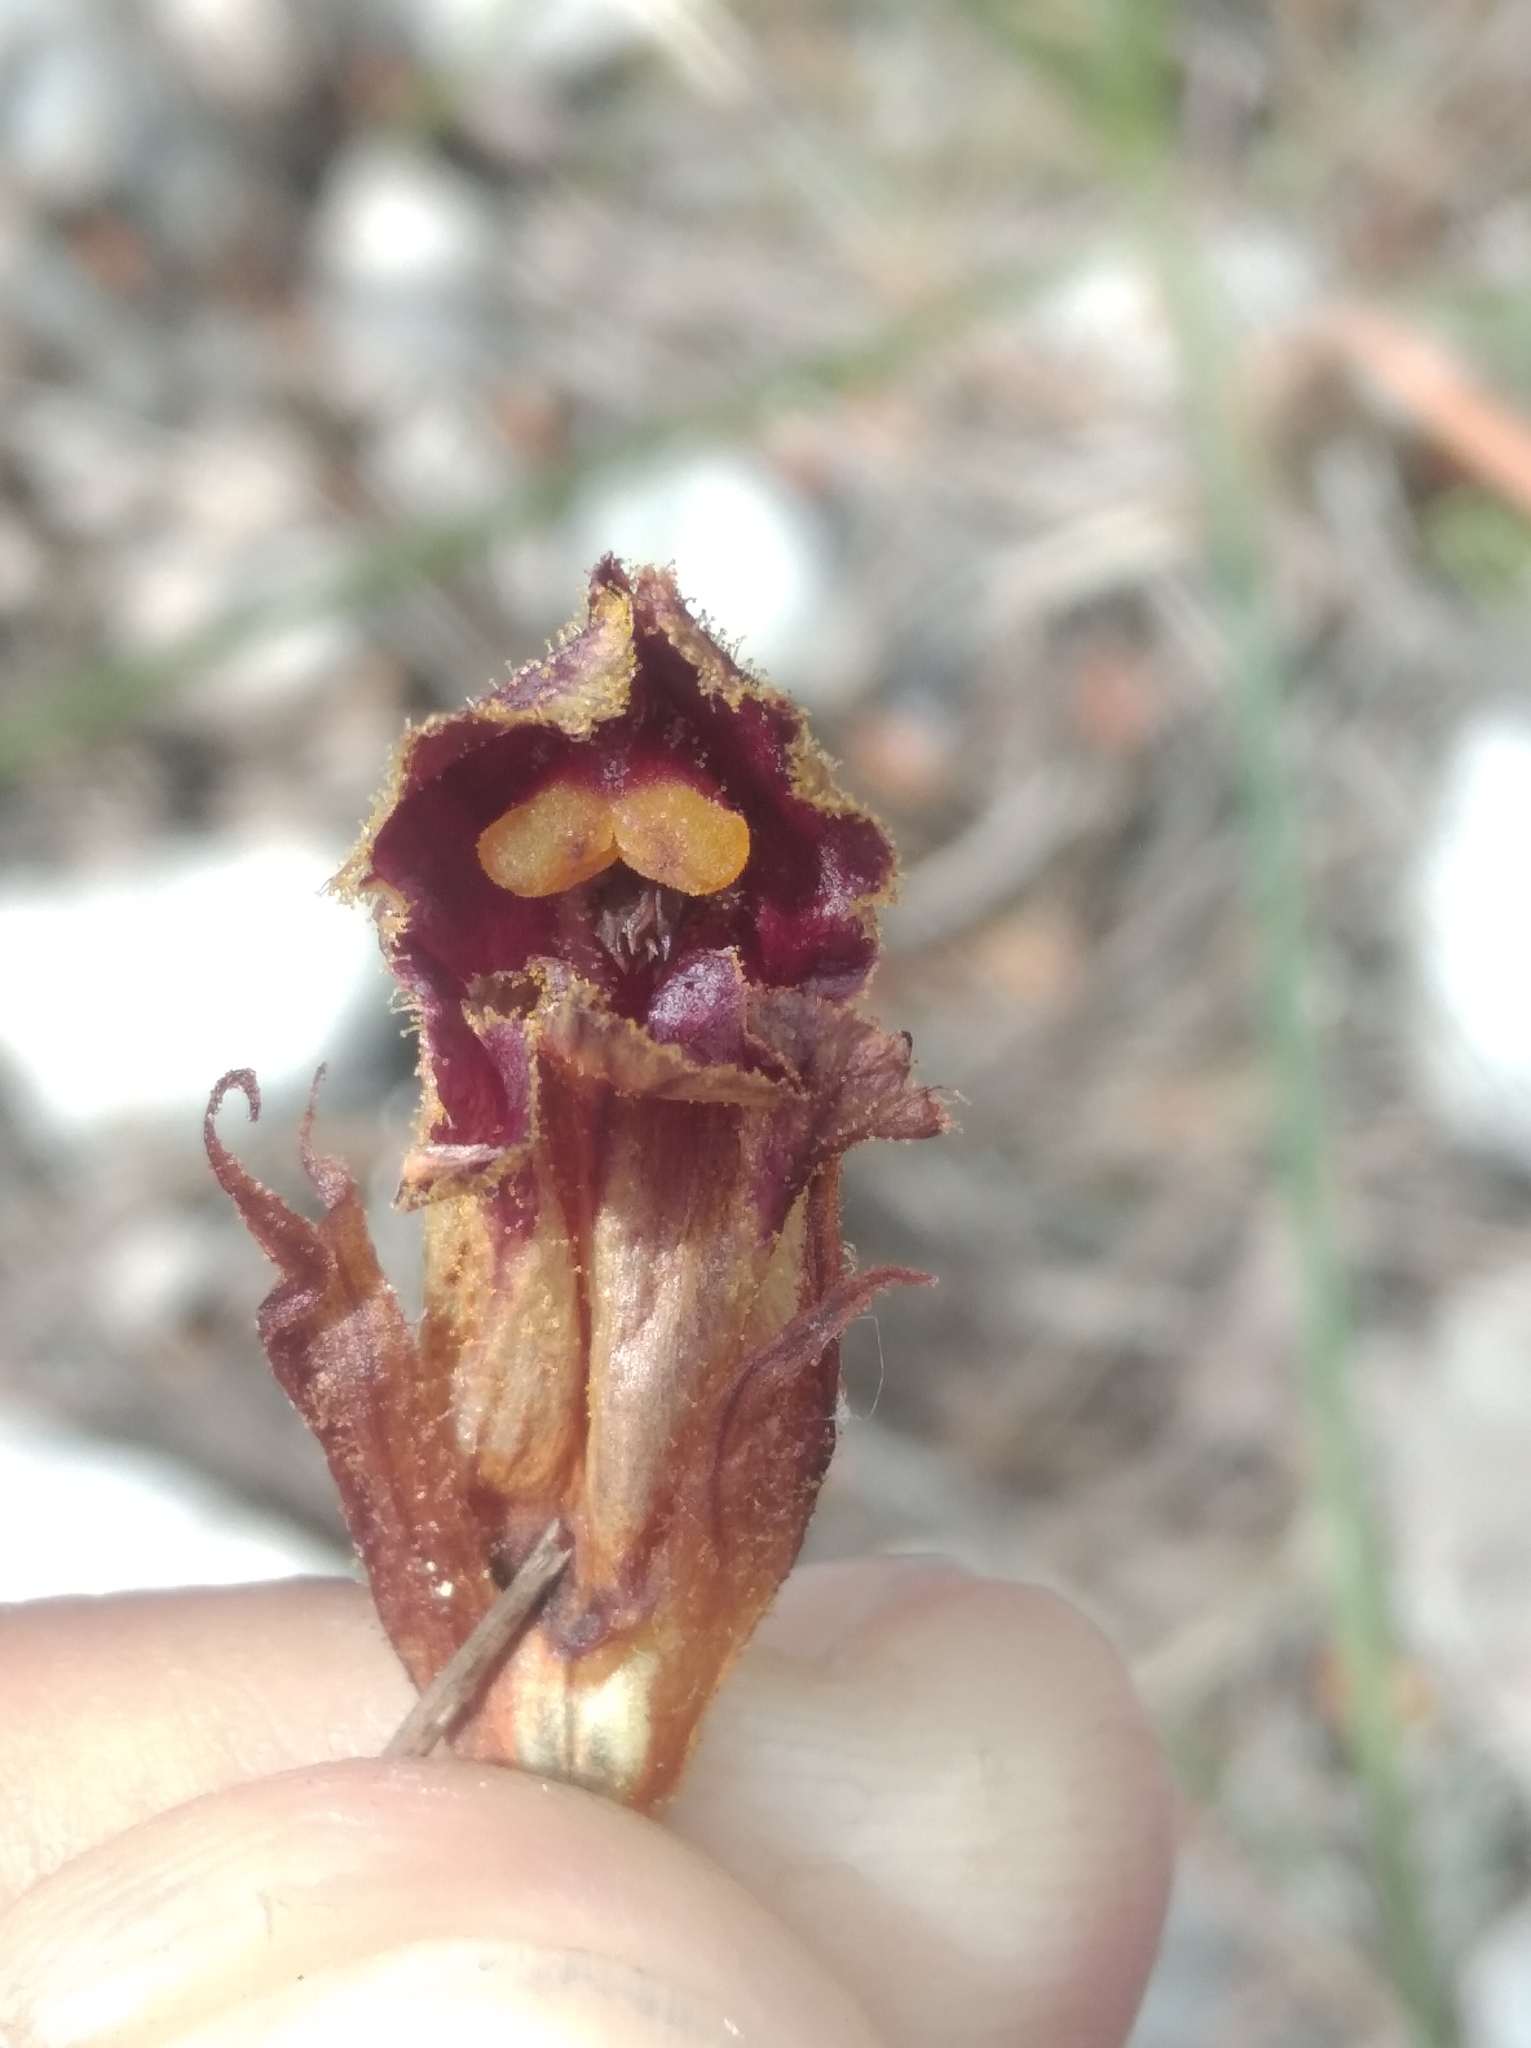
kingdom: Plantae
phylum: Tracheophyta
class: Magnoliopsida
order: Lamiales
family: Orobanchaceae
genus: Orobanche
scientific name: Orobanche gracilis
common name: Slender broomrape
